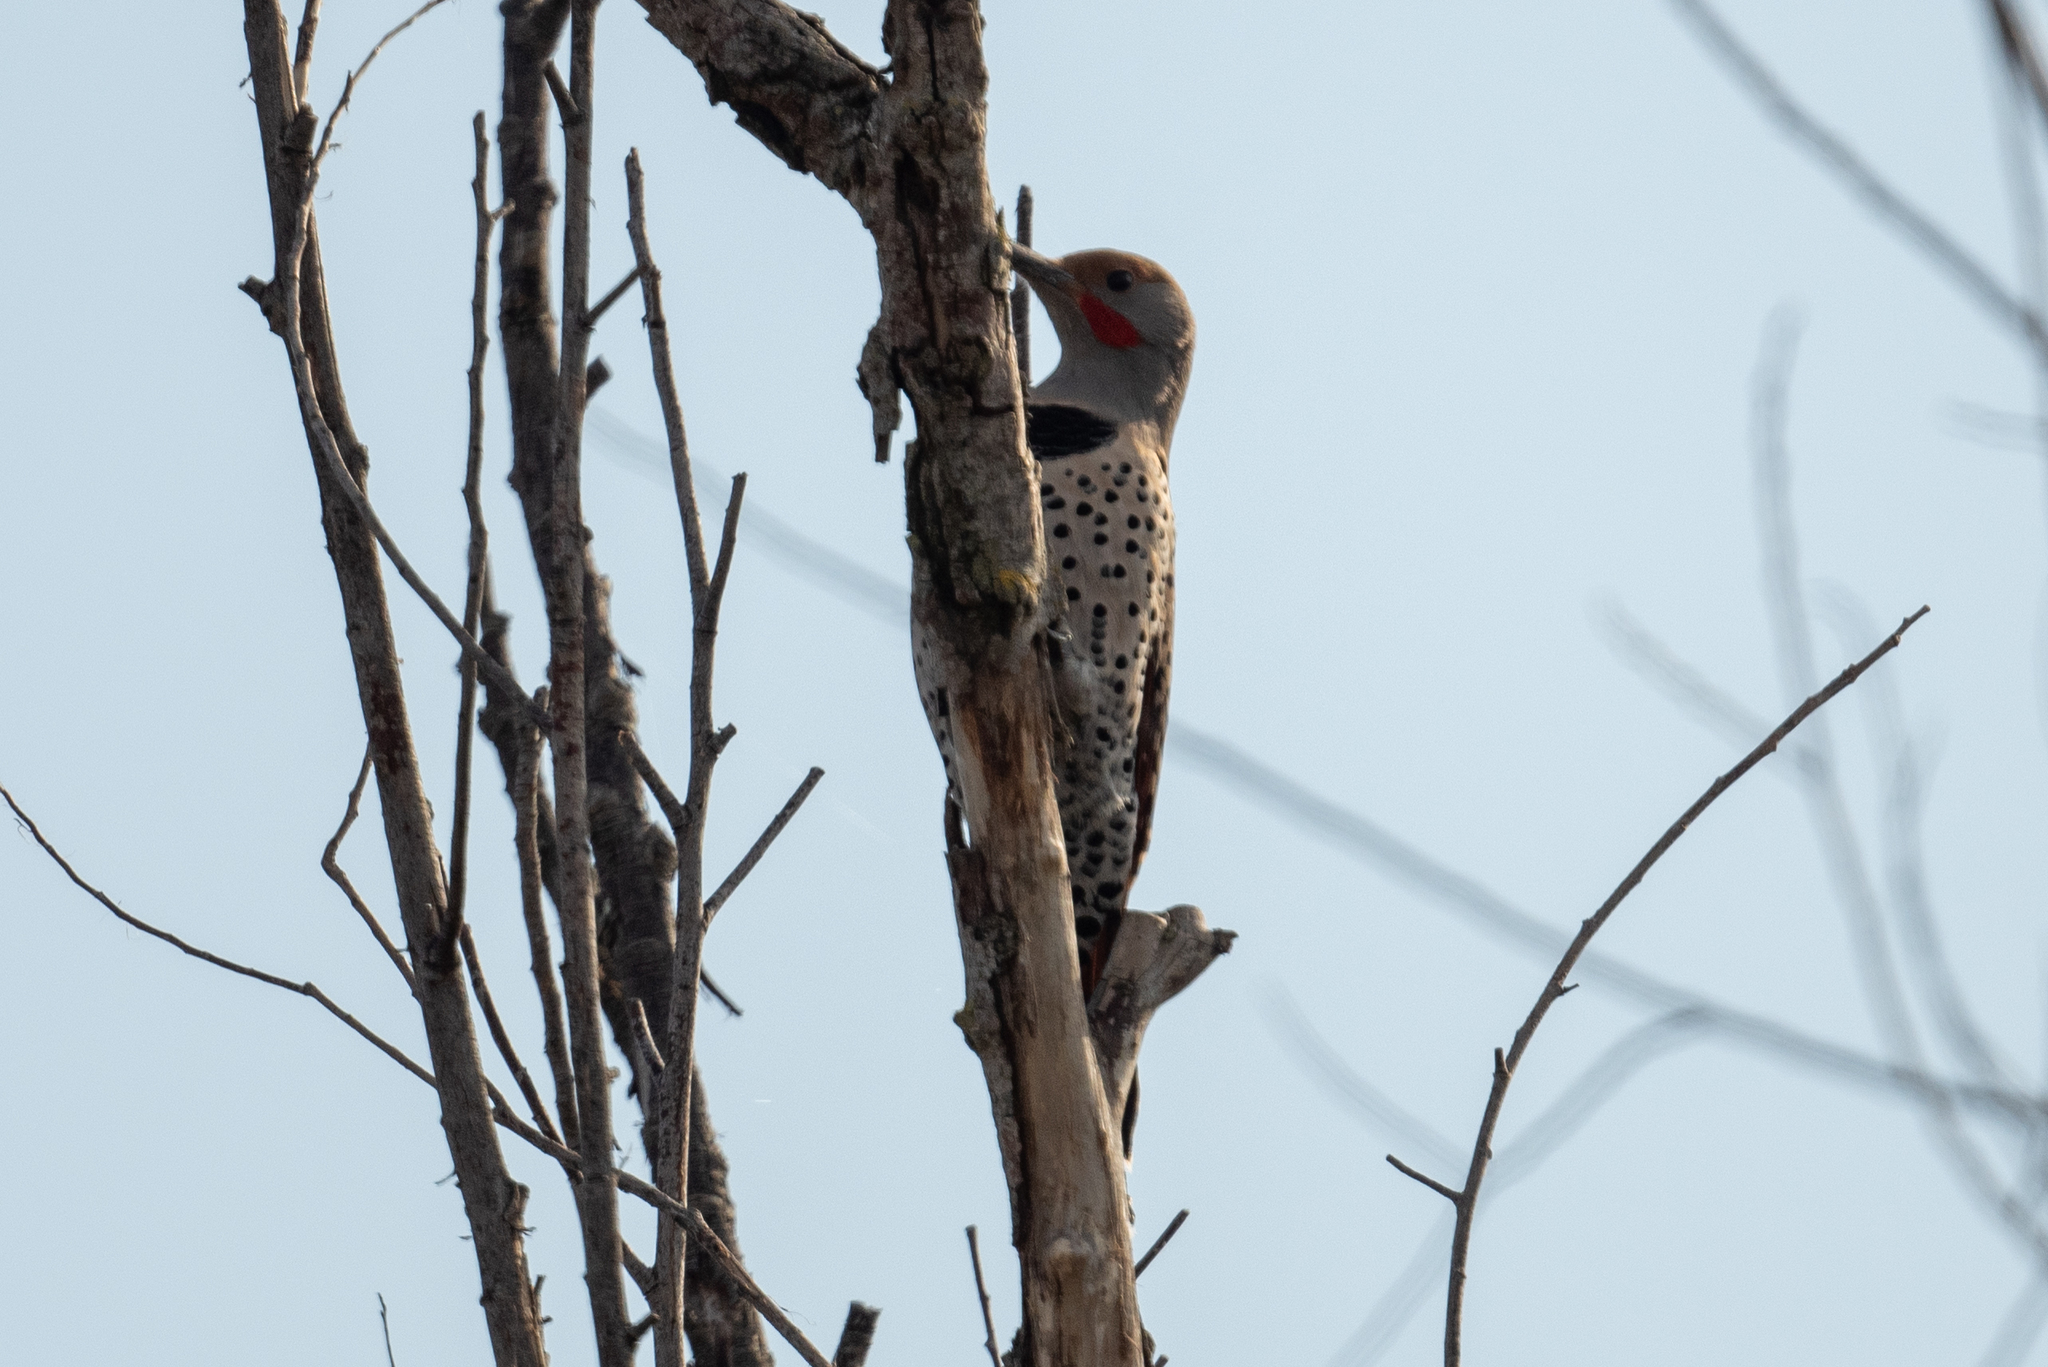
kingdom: Animalia
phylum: Chordata
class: Aves
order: Piciformes
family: Picidae
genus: Colaptes
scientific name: Colaptes auratus
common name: Northern flicker
